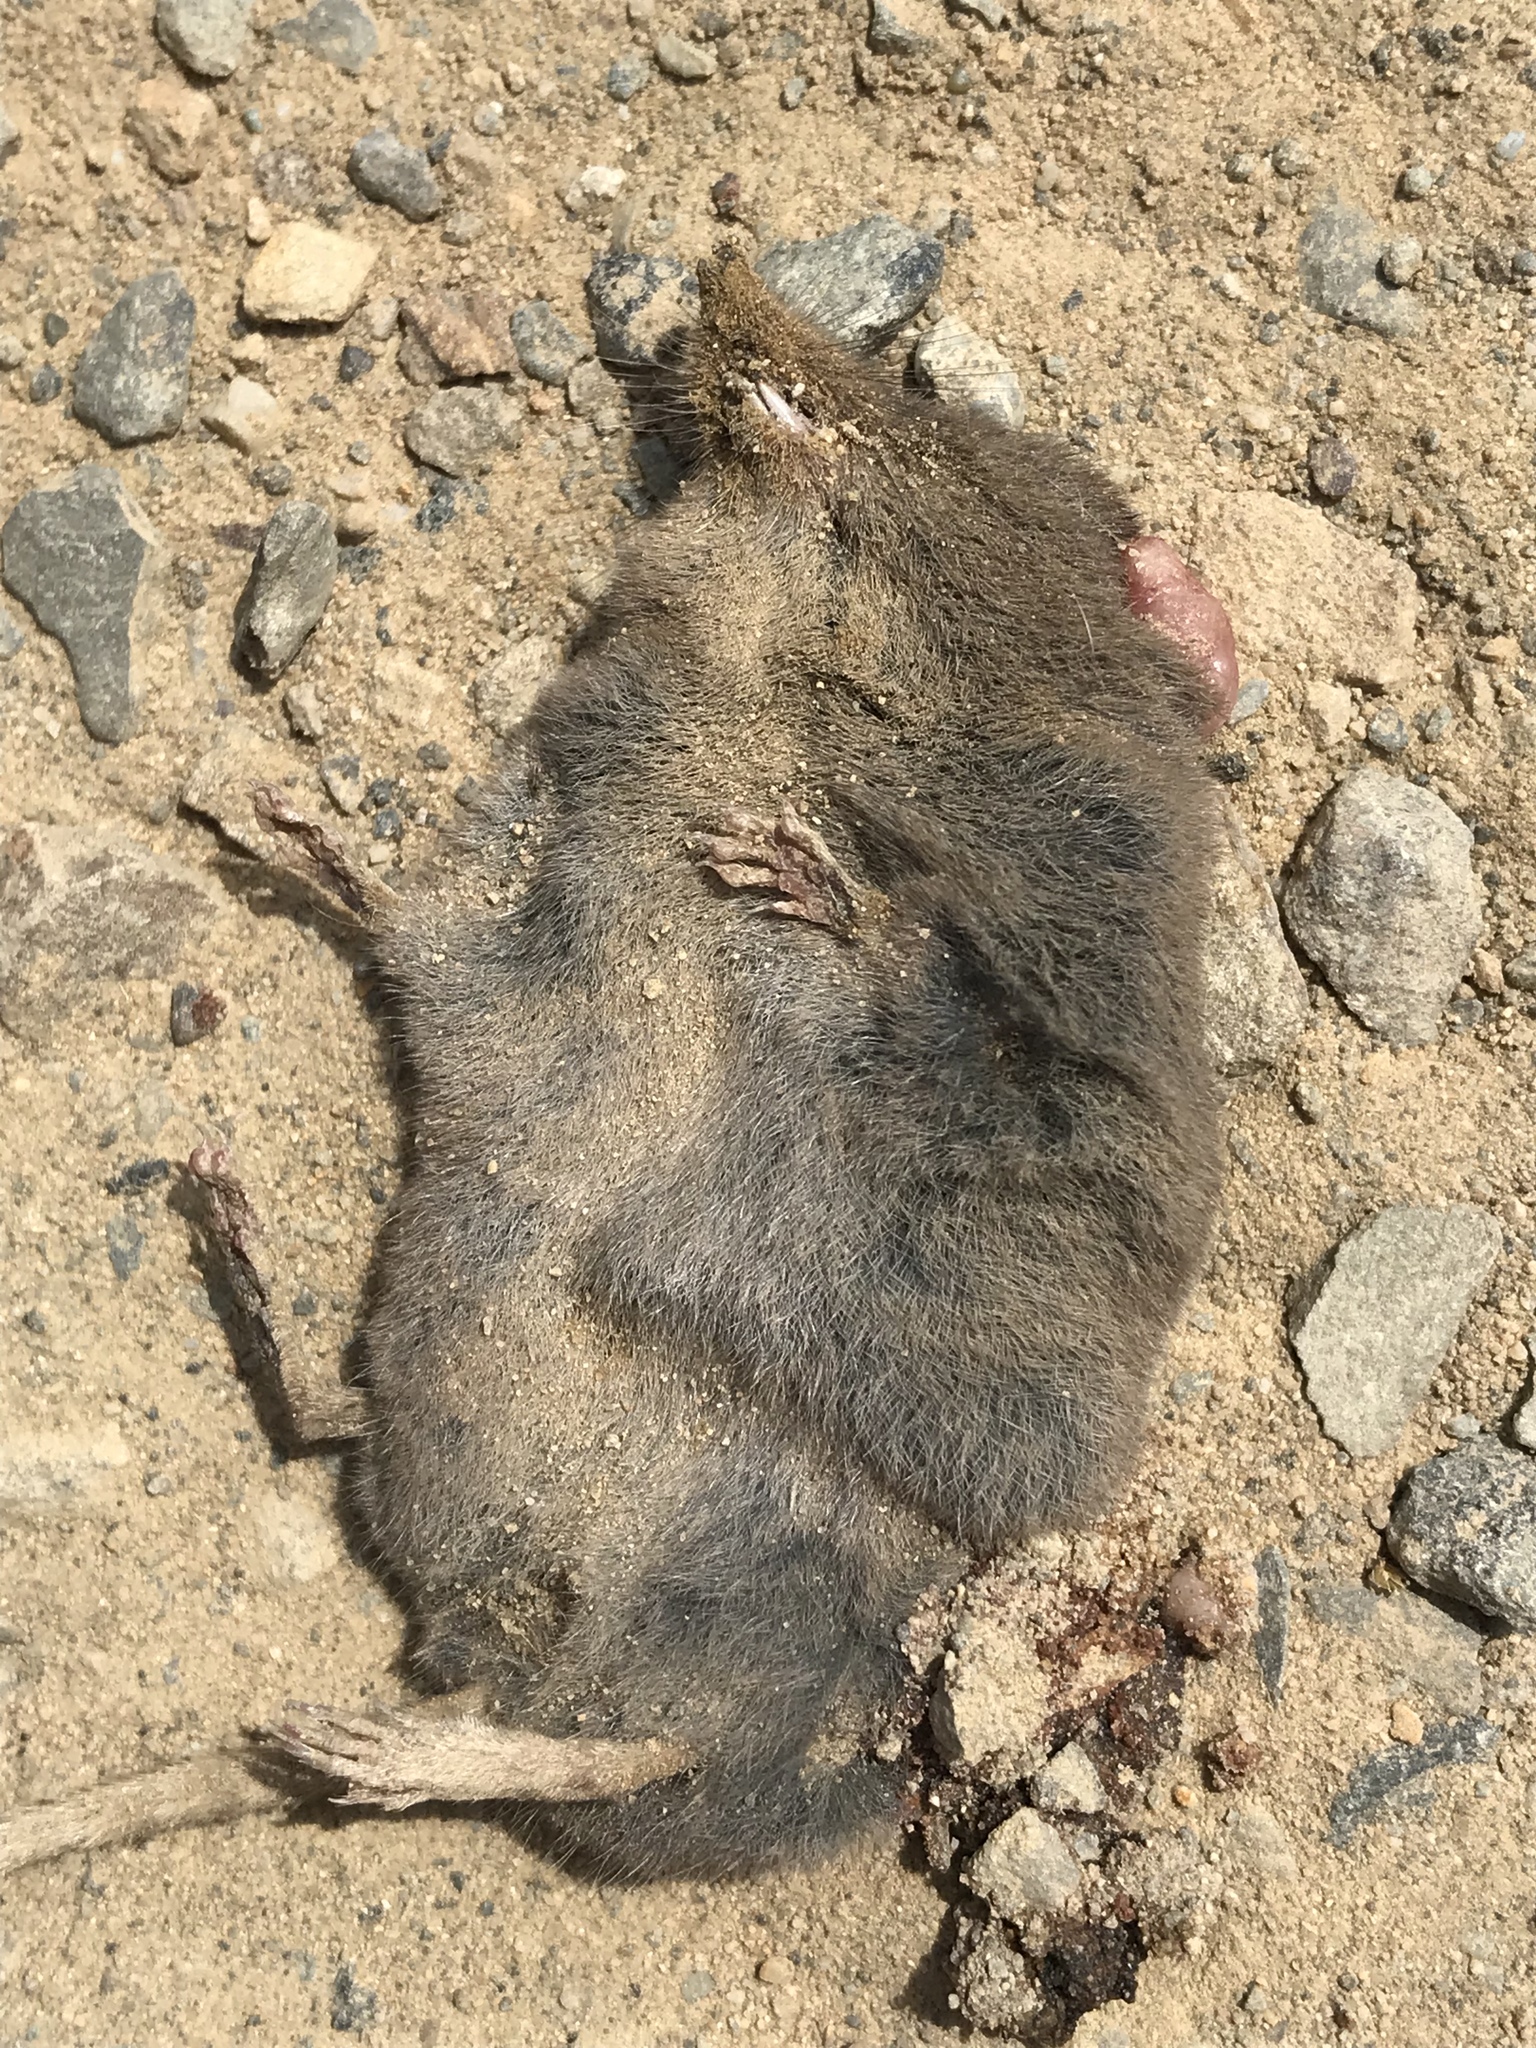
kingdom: Animalia
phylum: Chordata
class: Mammalia
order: Soricomorpha
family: Talpidae
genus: Neurotrichus
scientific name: Neurotrichus gibbsii
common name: American shrew mole
